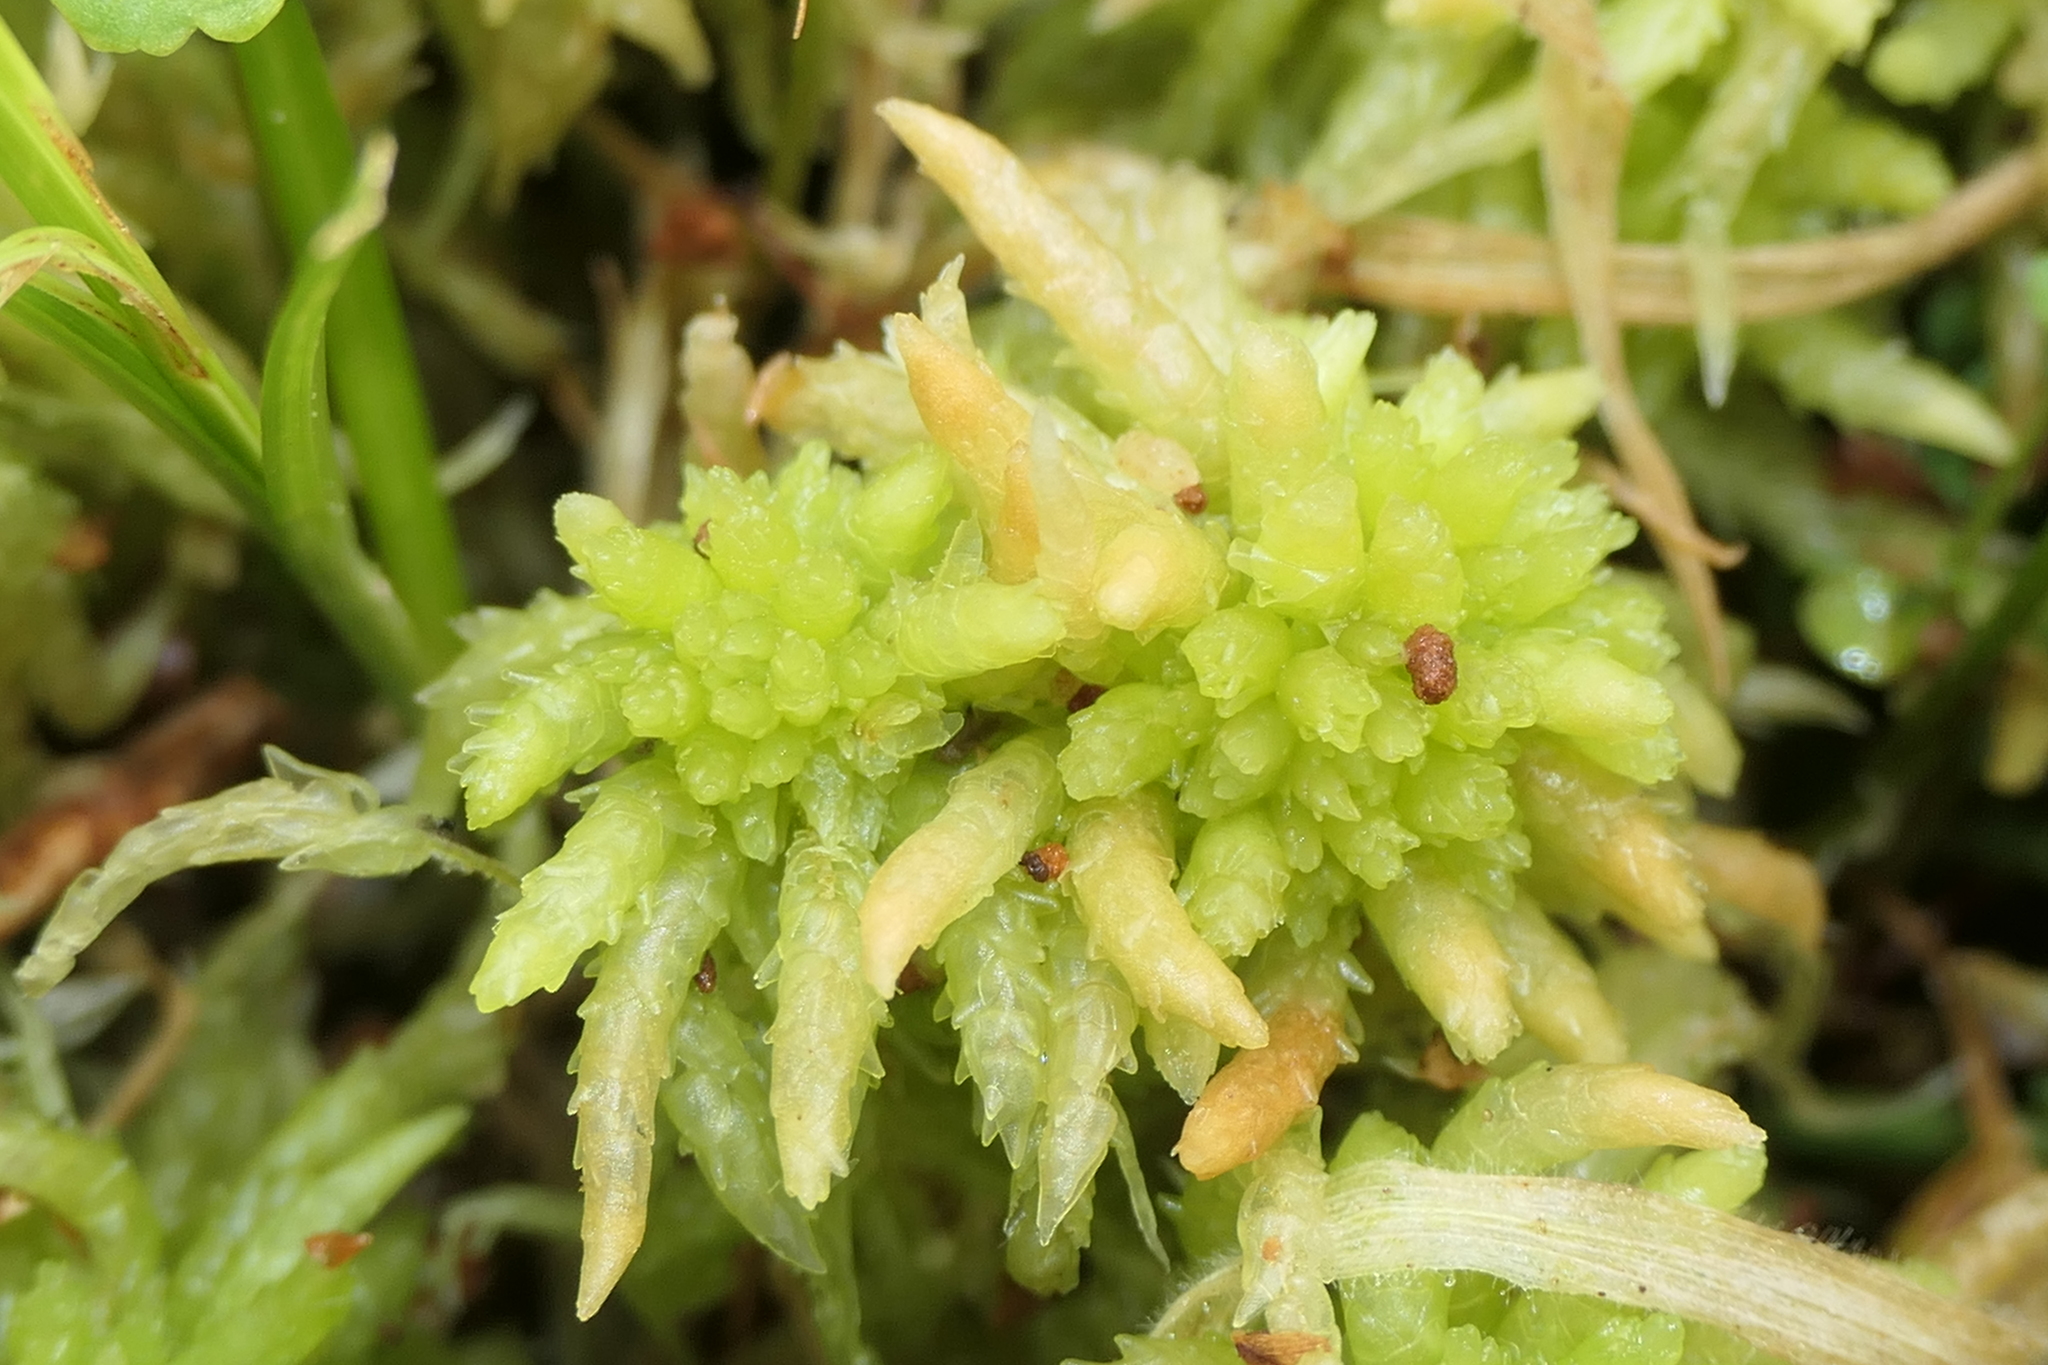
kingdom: Plantae
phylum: Bryophyta
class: Sphagnopsida
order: Sphagnales
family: Sphagnaceae
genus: Sphagnum
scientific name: Sphagnum palustre
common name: Blunt-leaved bog-moss
